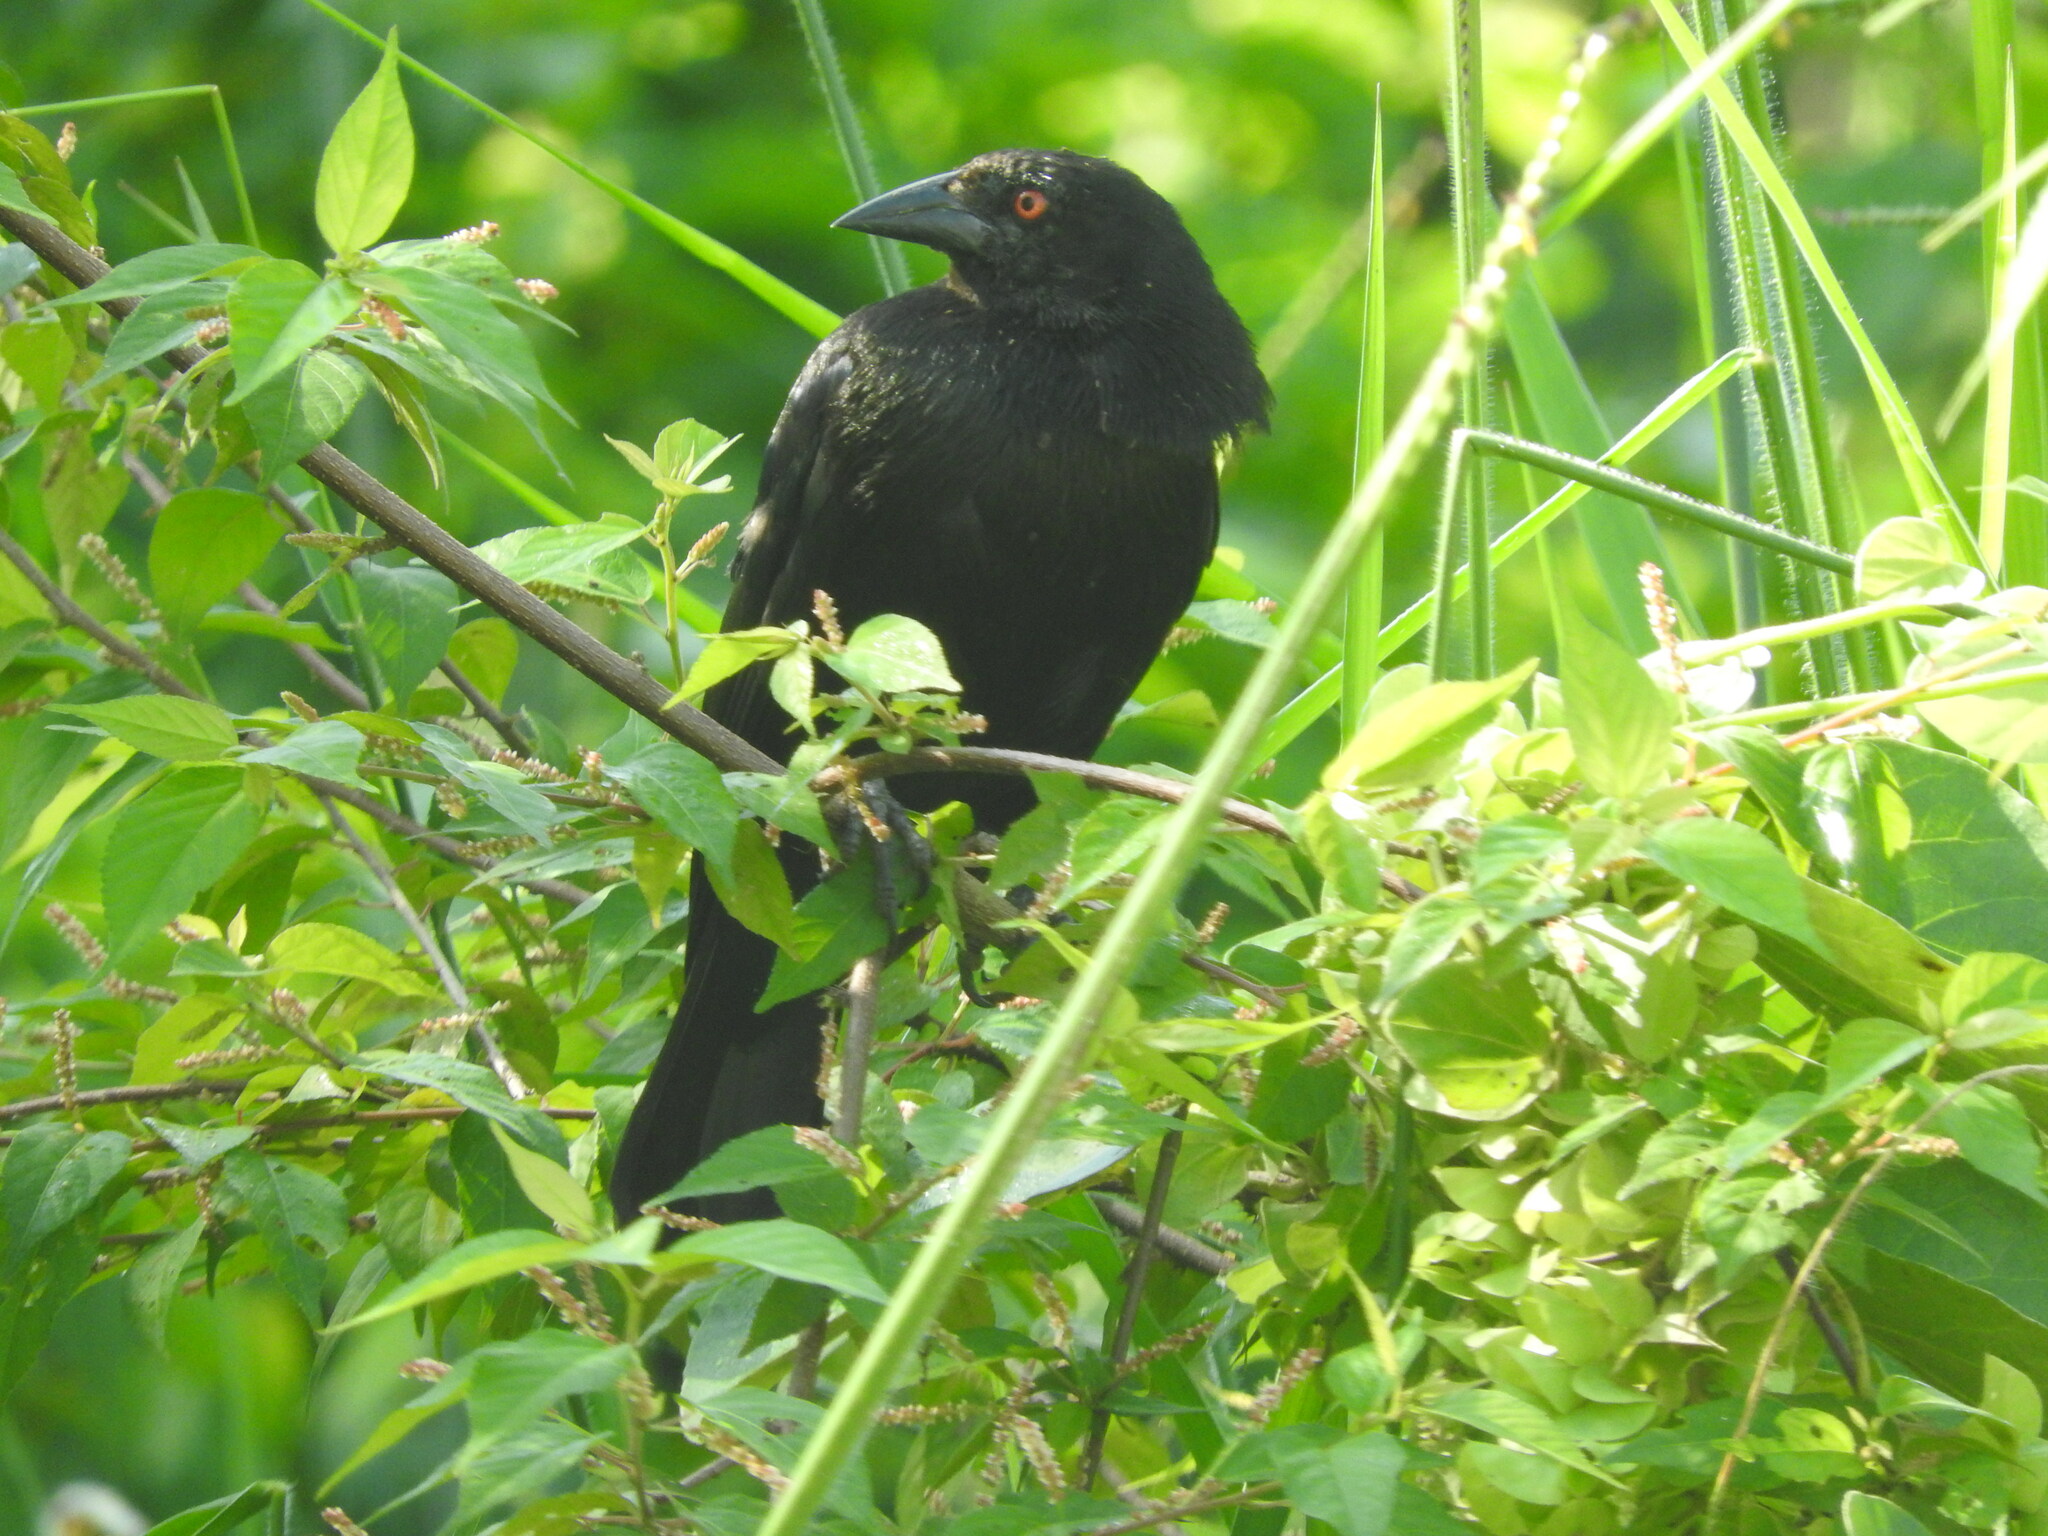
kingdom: Animalia
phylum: Chordata
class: Aves
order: Passeriformes
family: Icteridae
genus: Molothrus
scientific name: Molothrus aeneus
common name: Bronzed cowbird
